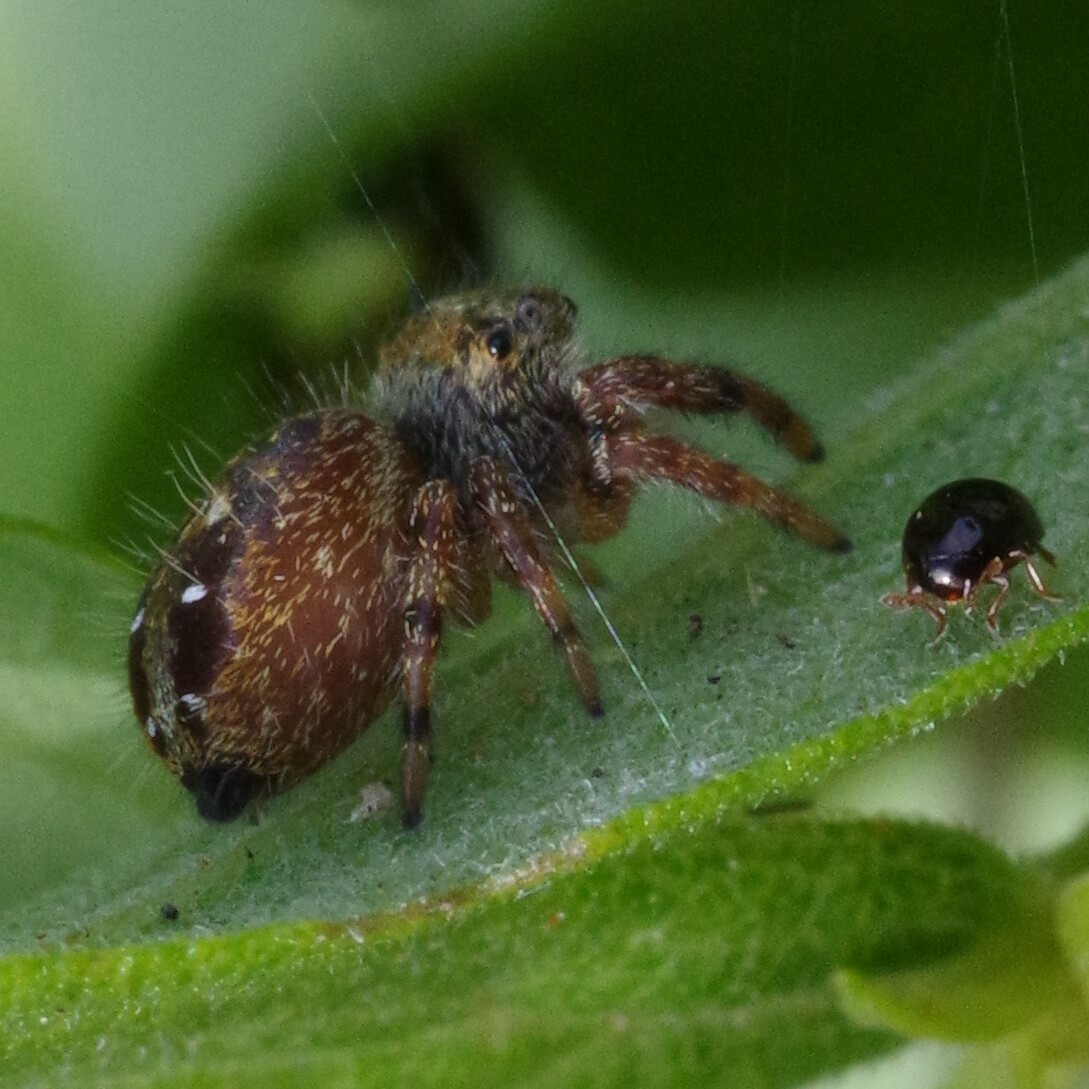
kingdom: Animalia
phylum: Arthropoda
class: Arachnida
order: Araneae
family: Salticidae
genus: Phidippus
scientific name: Phidippus audax
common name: Bold jumper
